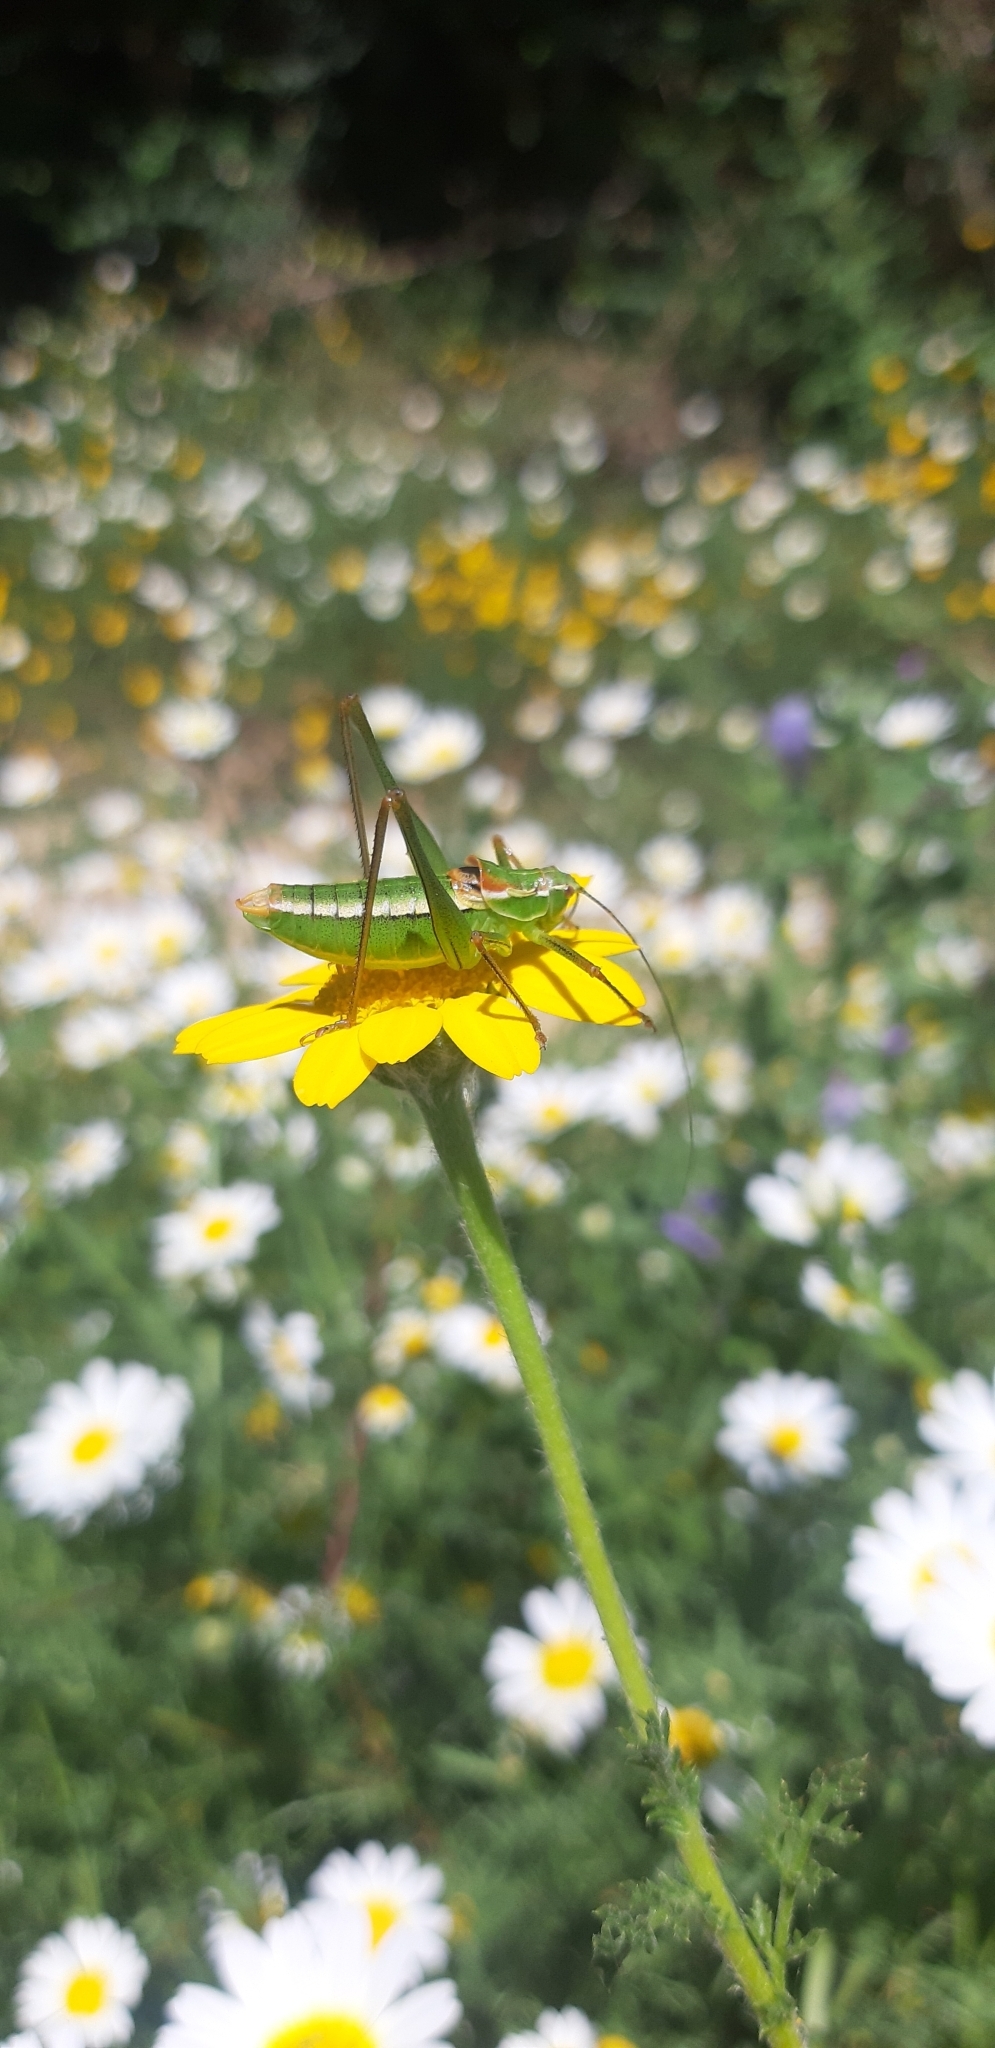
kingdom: Animalia
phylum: Arthropoda
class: Insecta
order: Orthoptera
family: Tettigoniidae
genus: Poecilimon
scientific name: Poecilimon superbus
